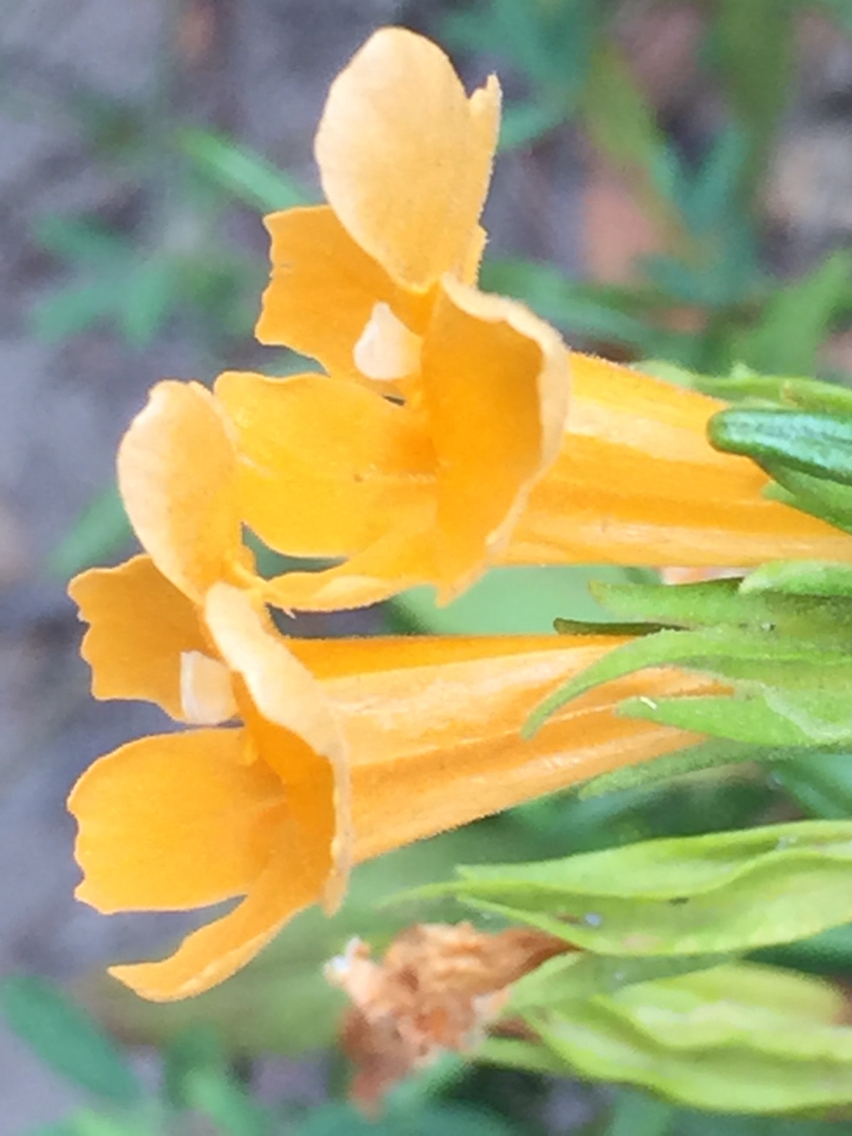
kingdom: Plantae
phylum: Tracheophyta
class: Magnoliopsida
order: Lamiales
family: Phrymaceae
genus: Diplacus
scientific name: Diplacus aurantiacus
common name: Bush monkey-flower
